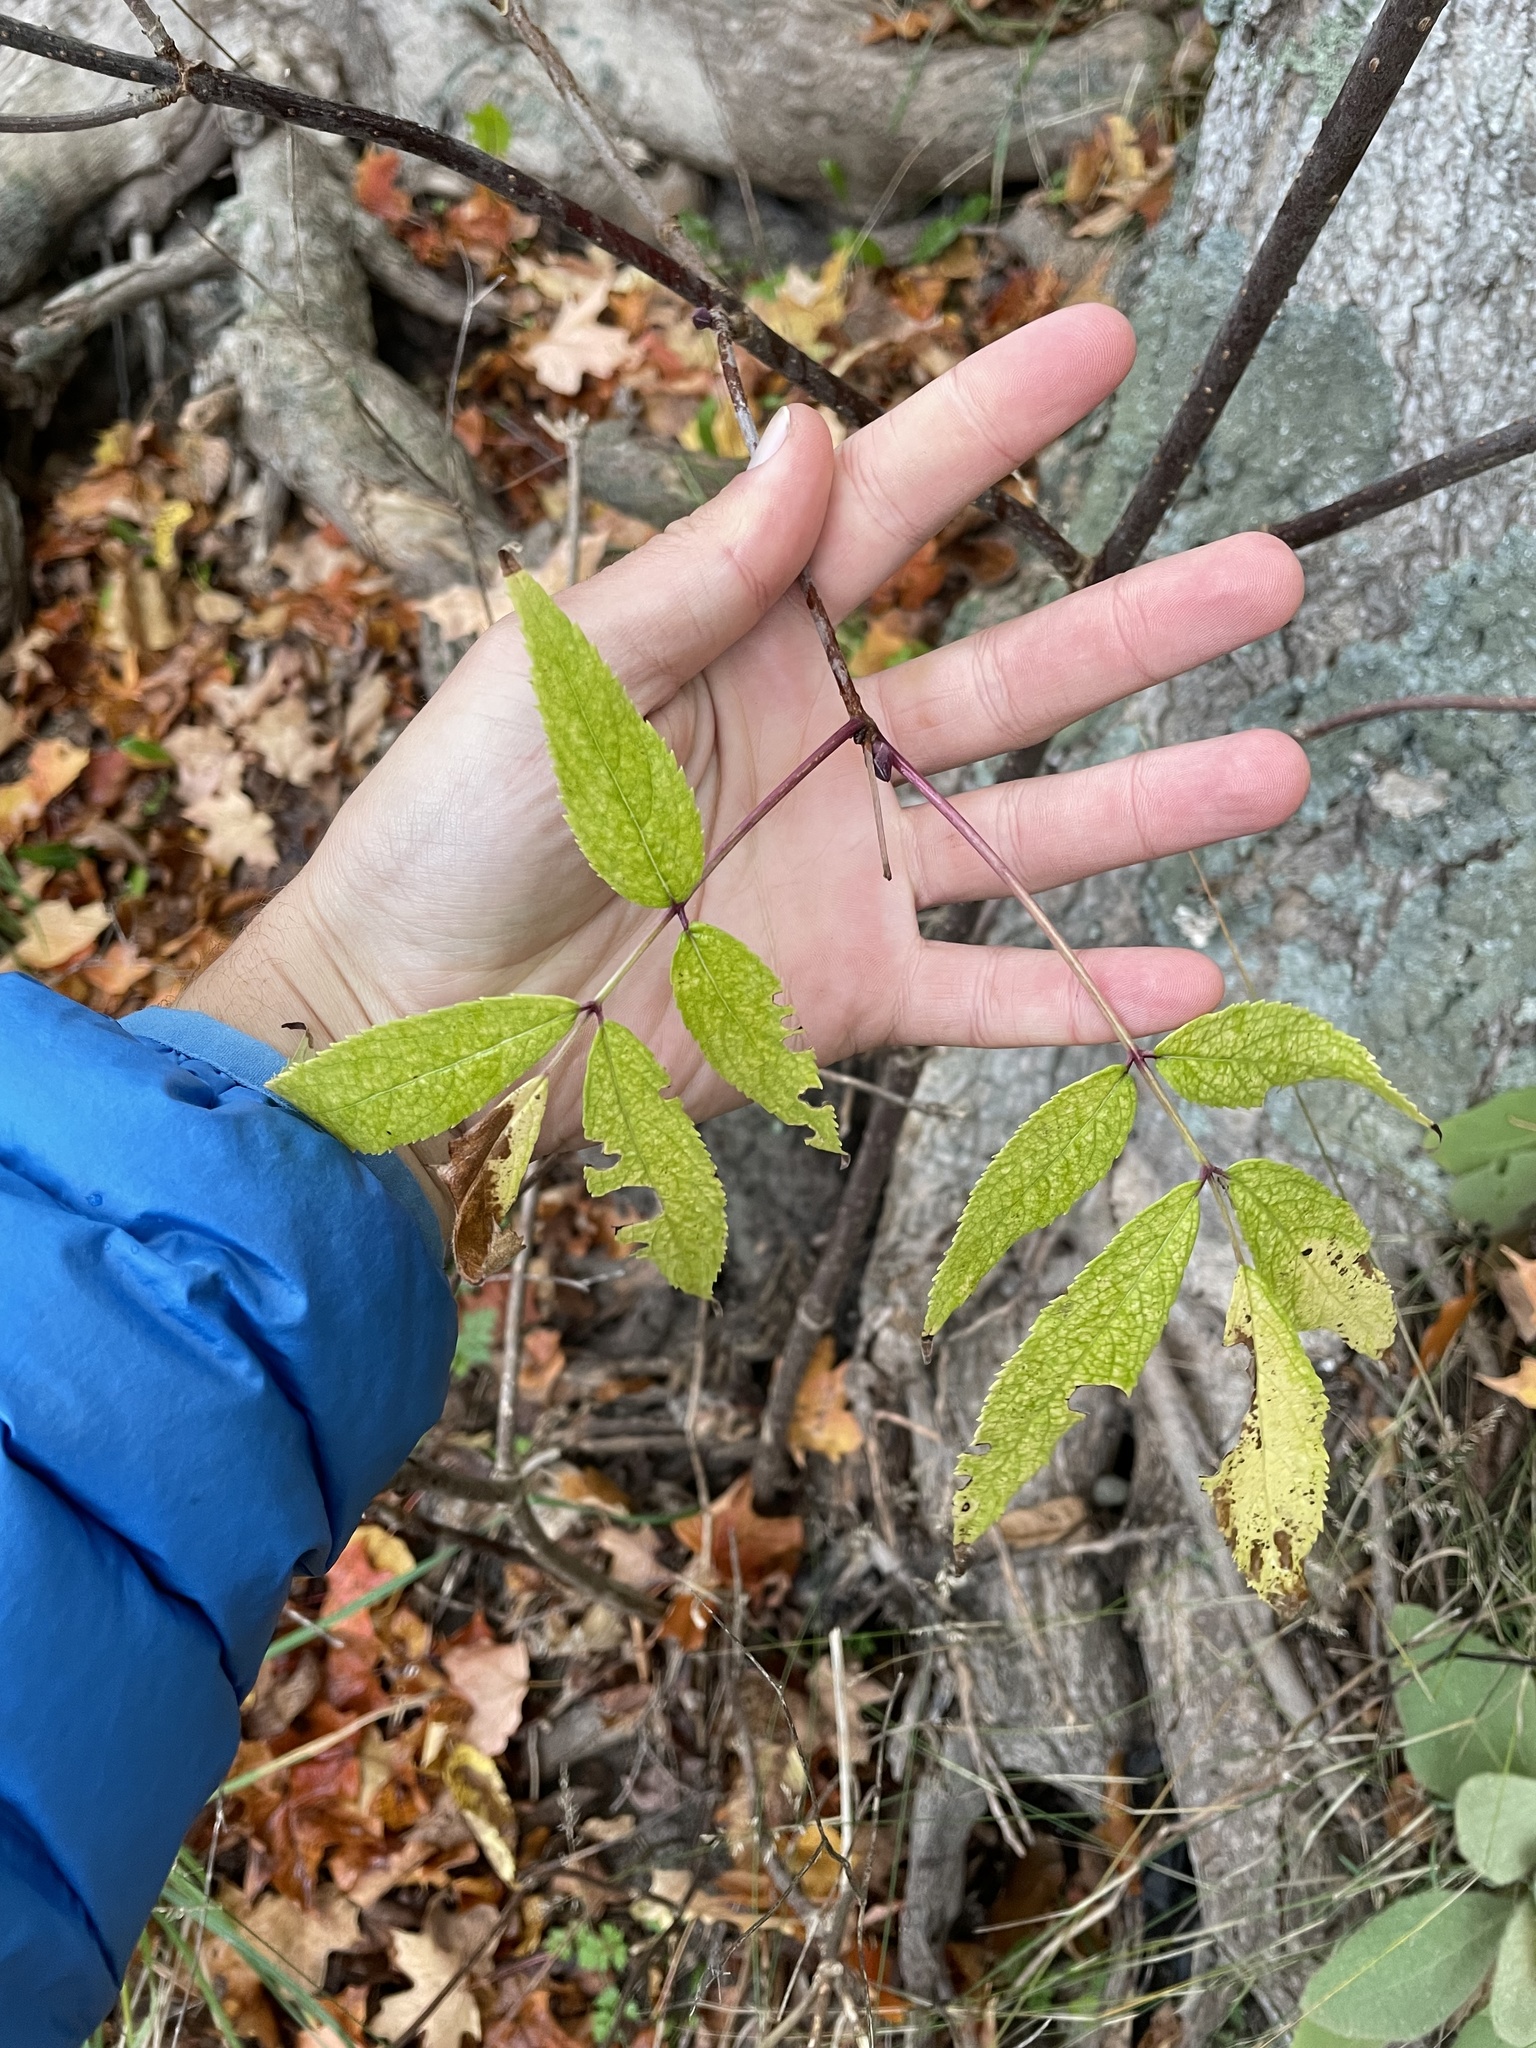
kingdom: Plantae
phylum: Tracheophyta
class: Magnoliopsida
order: Dipsacales
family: Viburnaceae
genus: Sambucus
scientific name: Sambucus racemosa
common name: Red-berried elder
